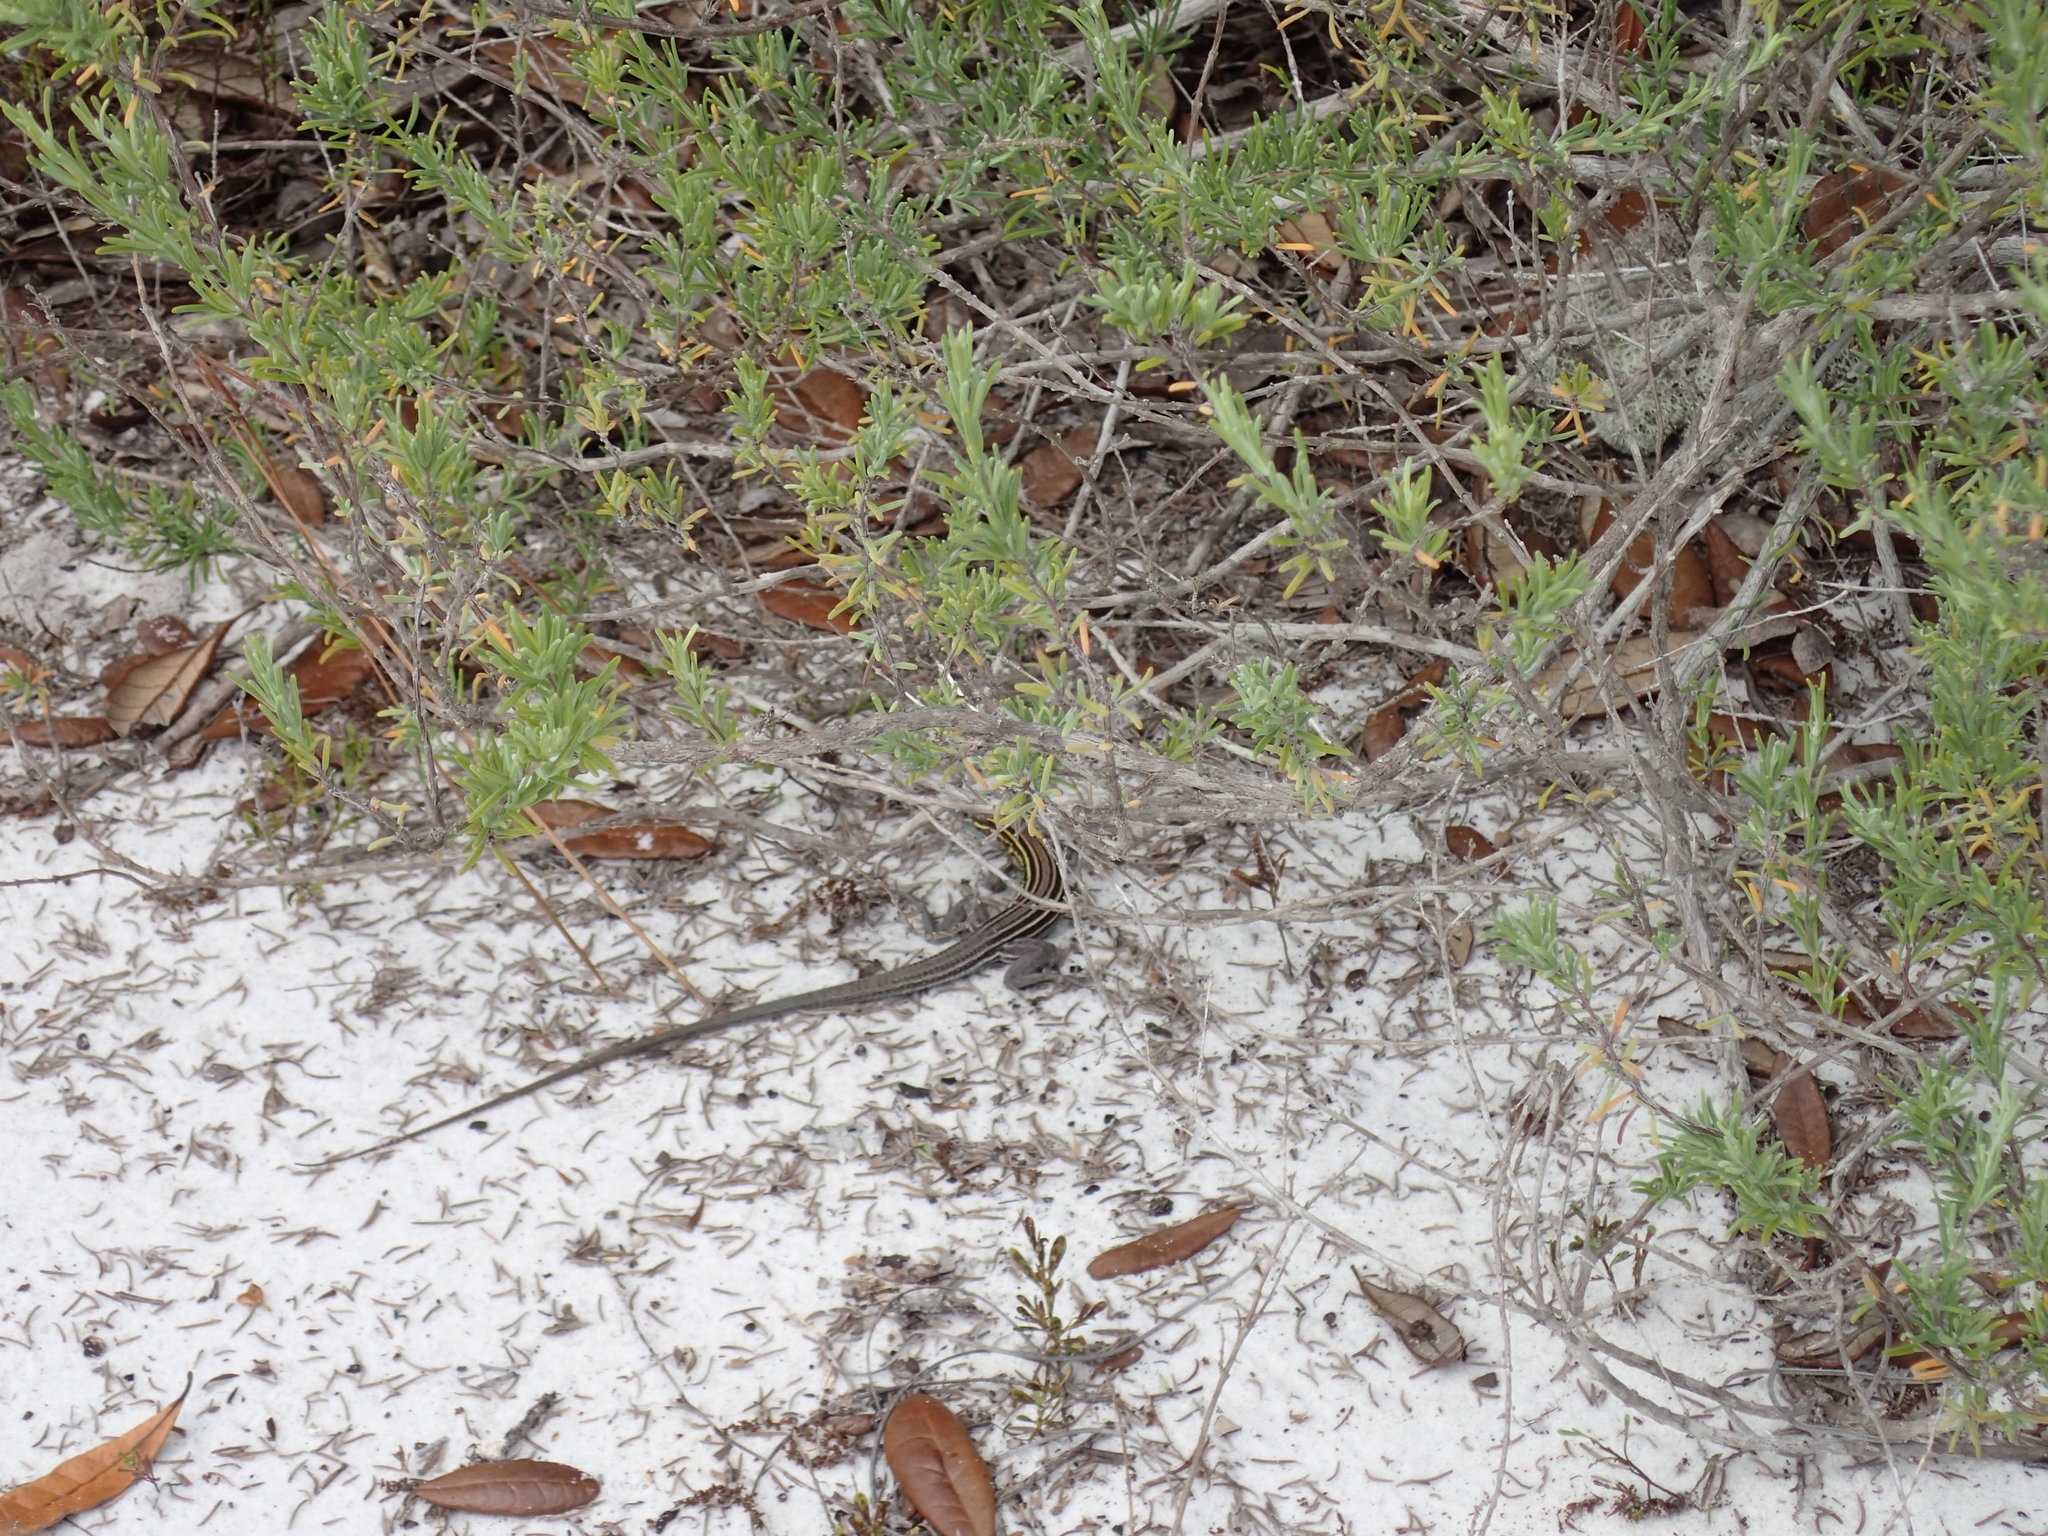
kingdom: Animalia
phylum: Chordata
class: Squamata
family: Teiidae
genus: Aspidoscelis
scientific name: Aspidoscelis sexlineatus
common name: Six-lined racerunner
